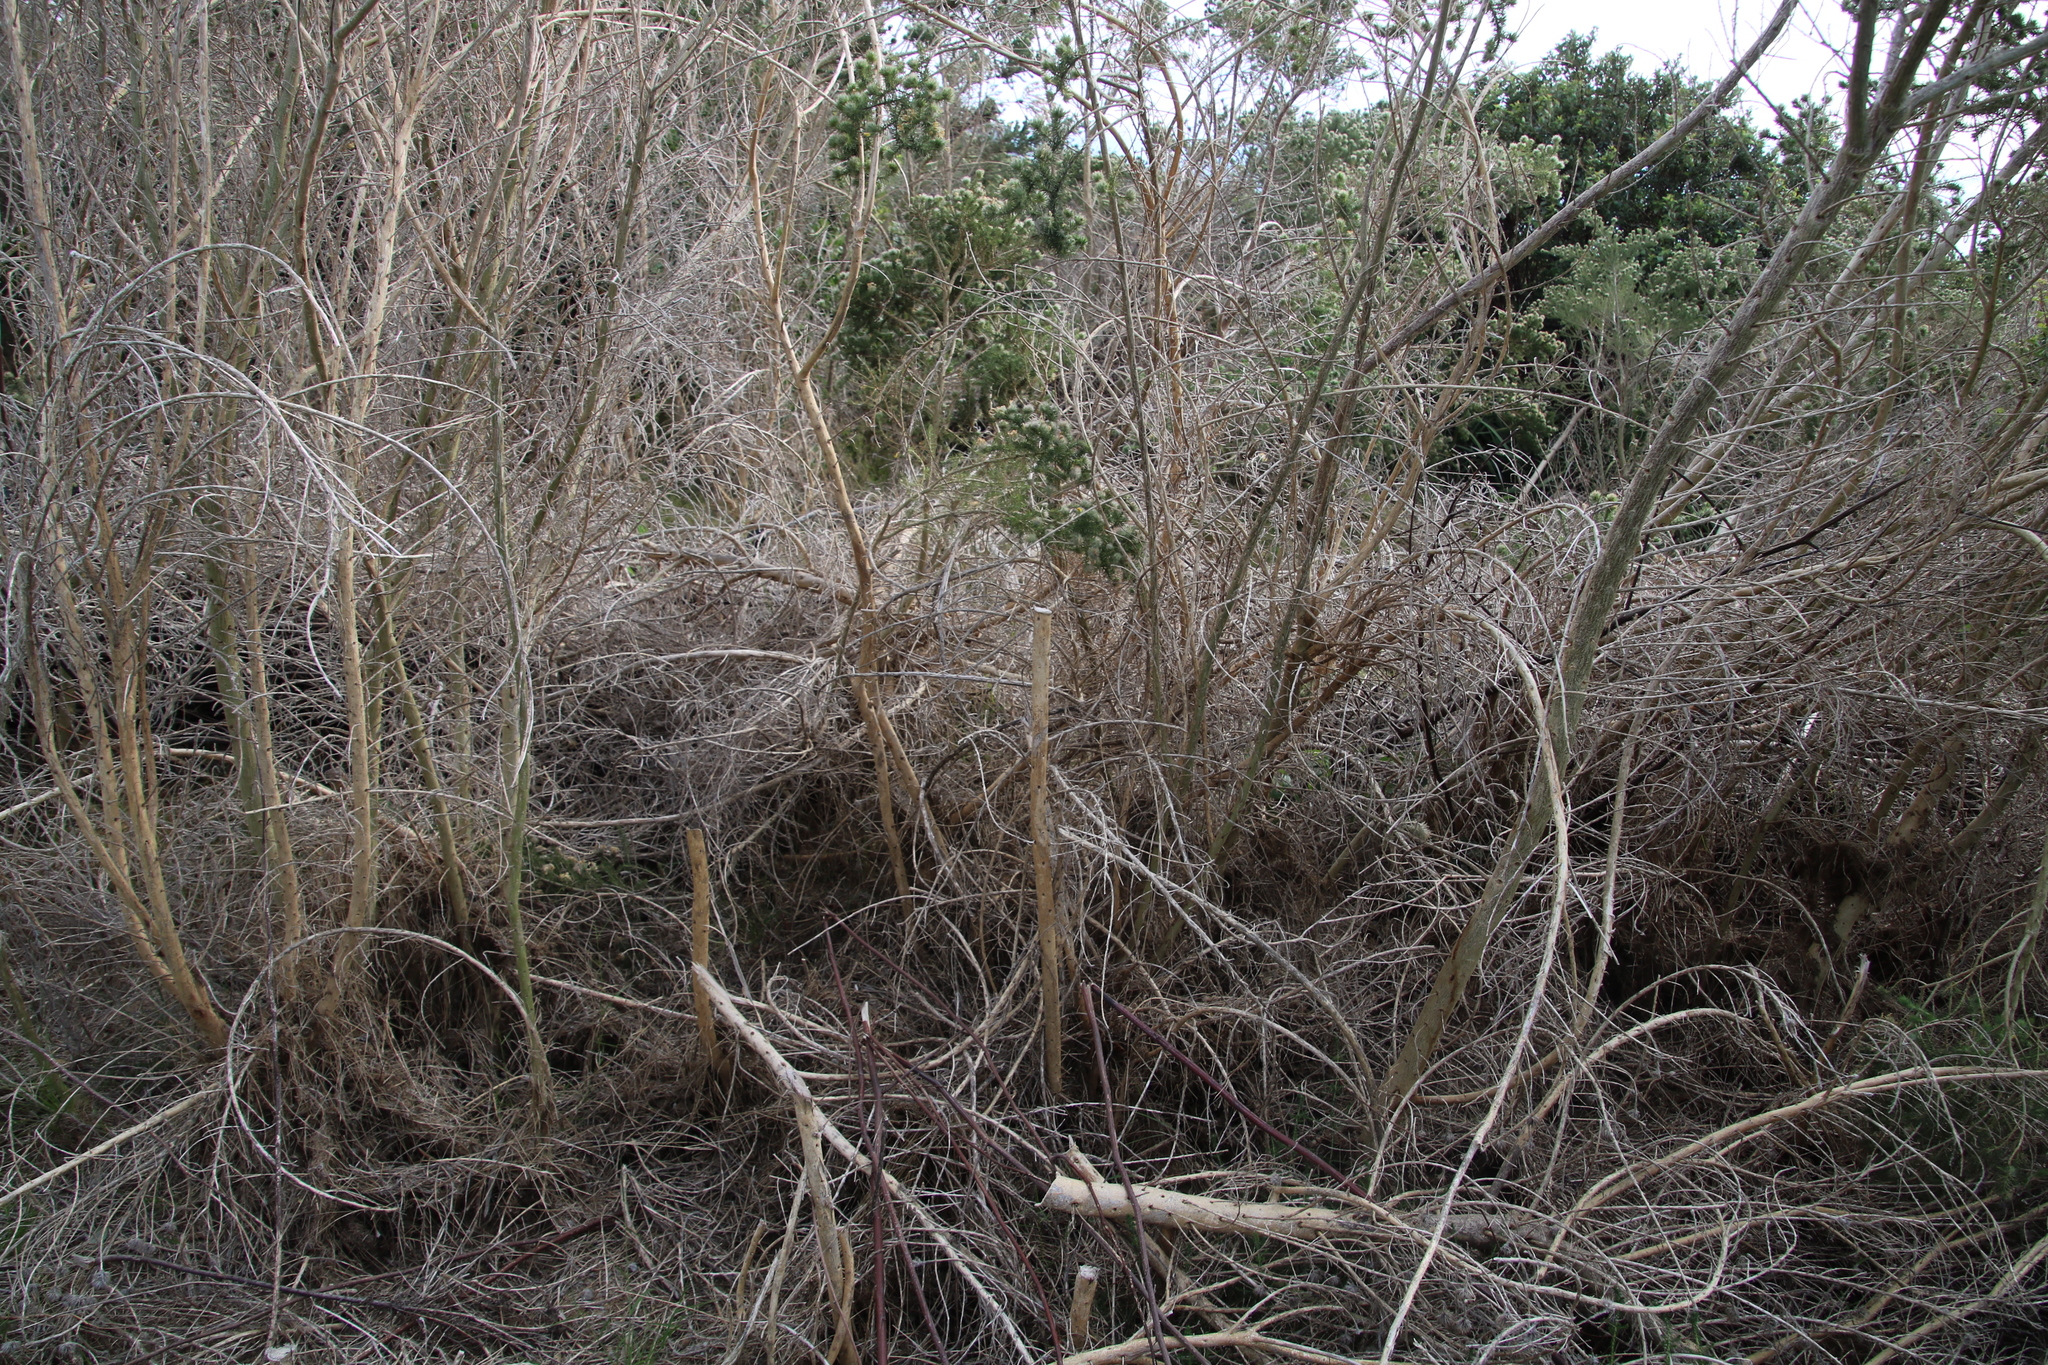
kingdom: Plantae
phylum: Tracheophyta
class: Magnoliopsida
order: Fabales
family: Fabaceae
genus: Aspalathus
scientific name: Aspalathus chenopoda
